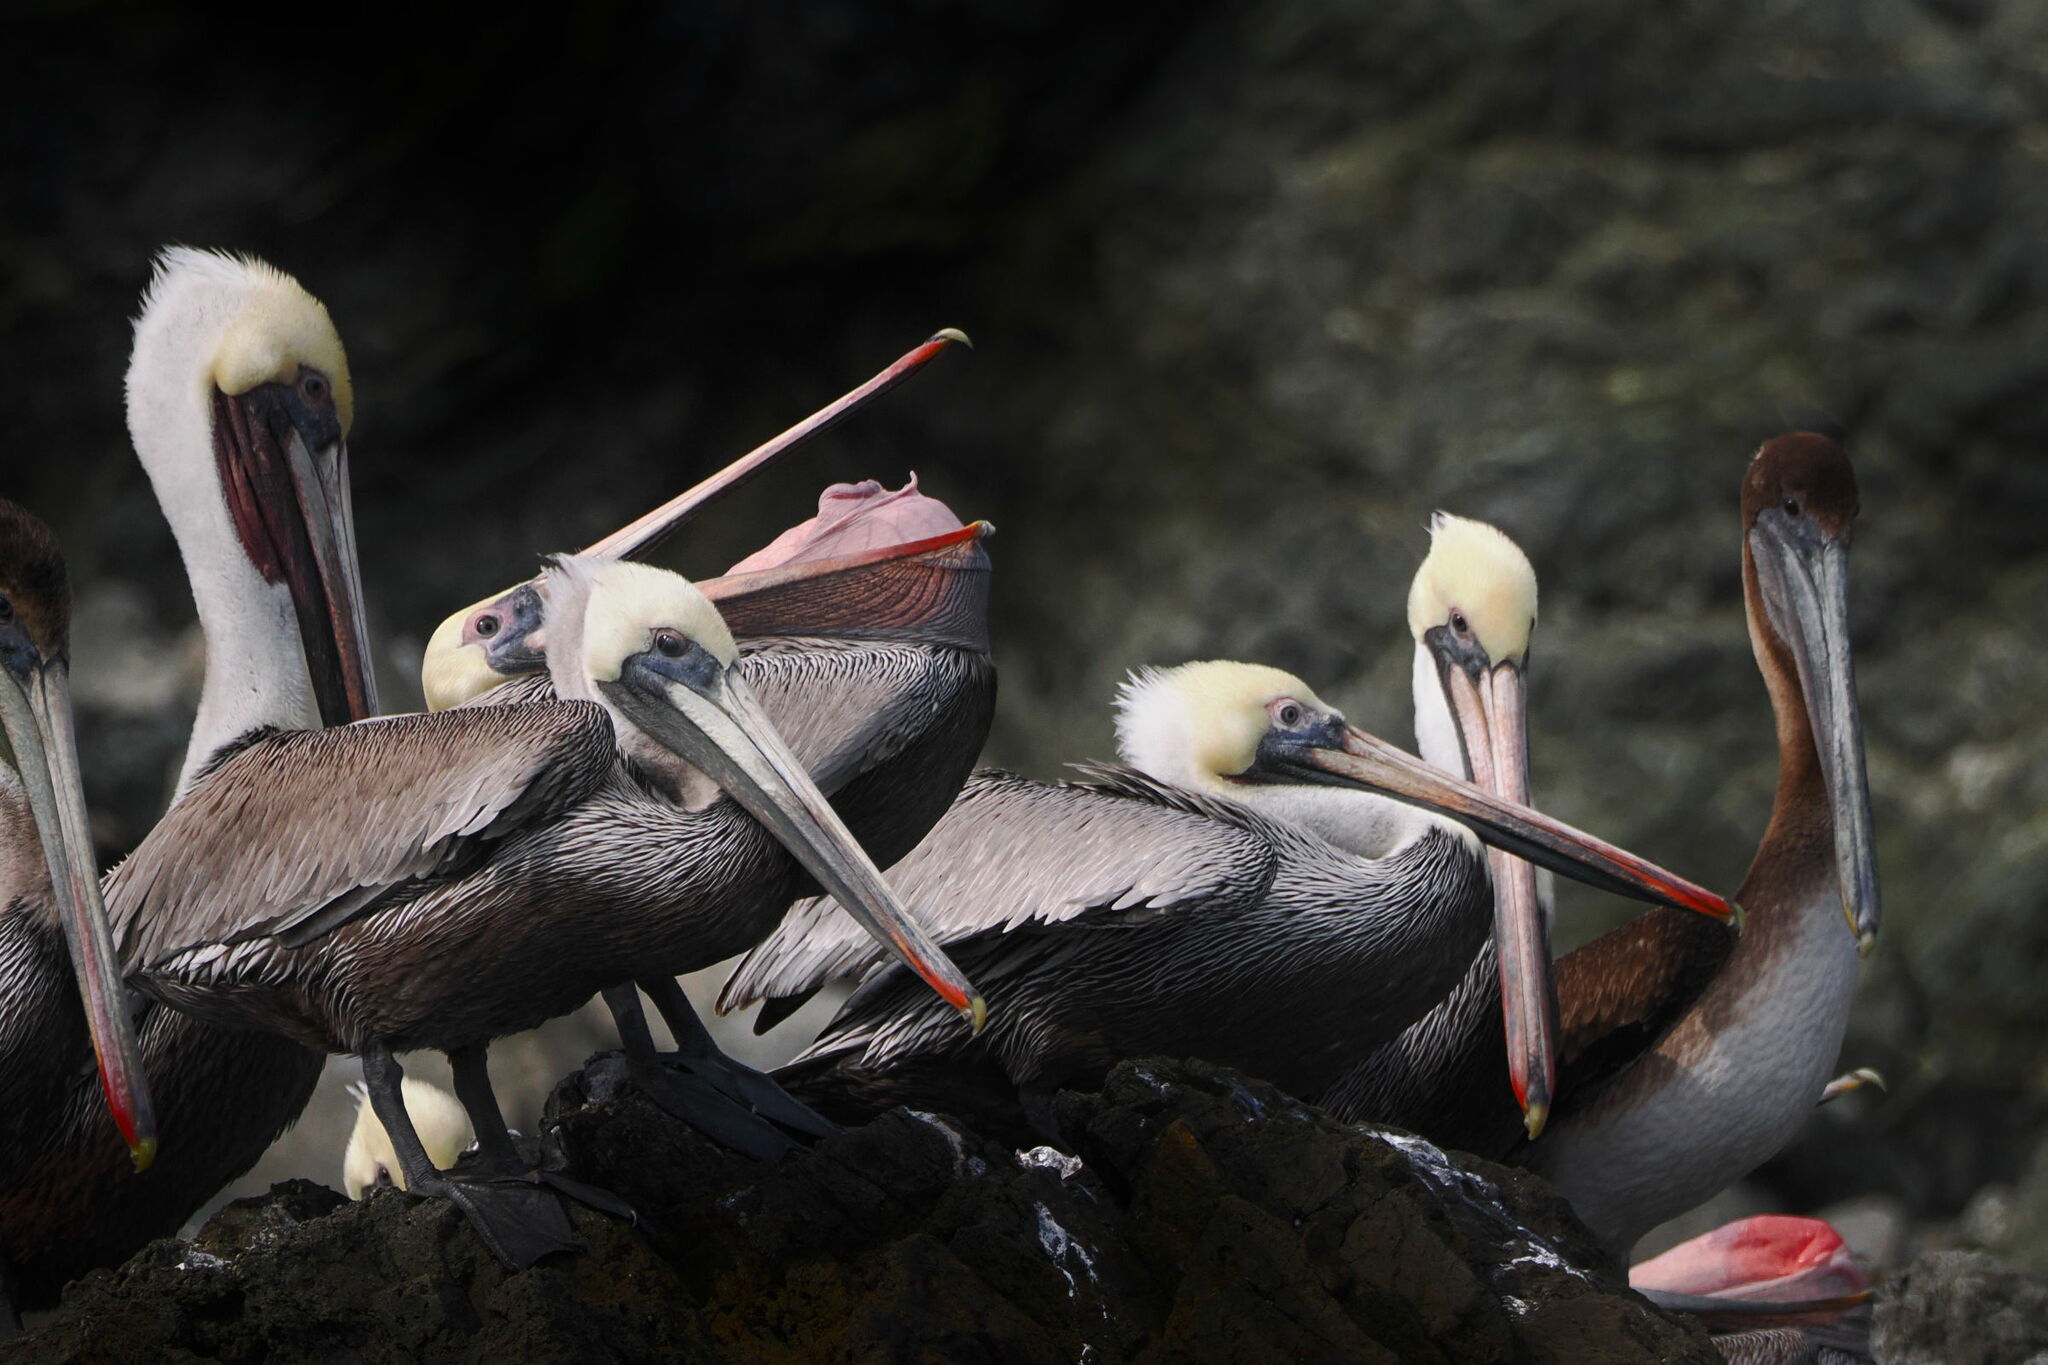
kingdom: Animalia
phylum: Chordata
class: Aves
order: Pelecaniformes
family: Pelecanidae
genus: Pelecanus
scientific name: Pelecanus occidentalis
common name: Brown pelican
